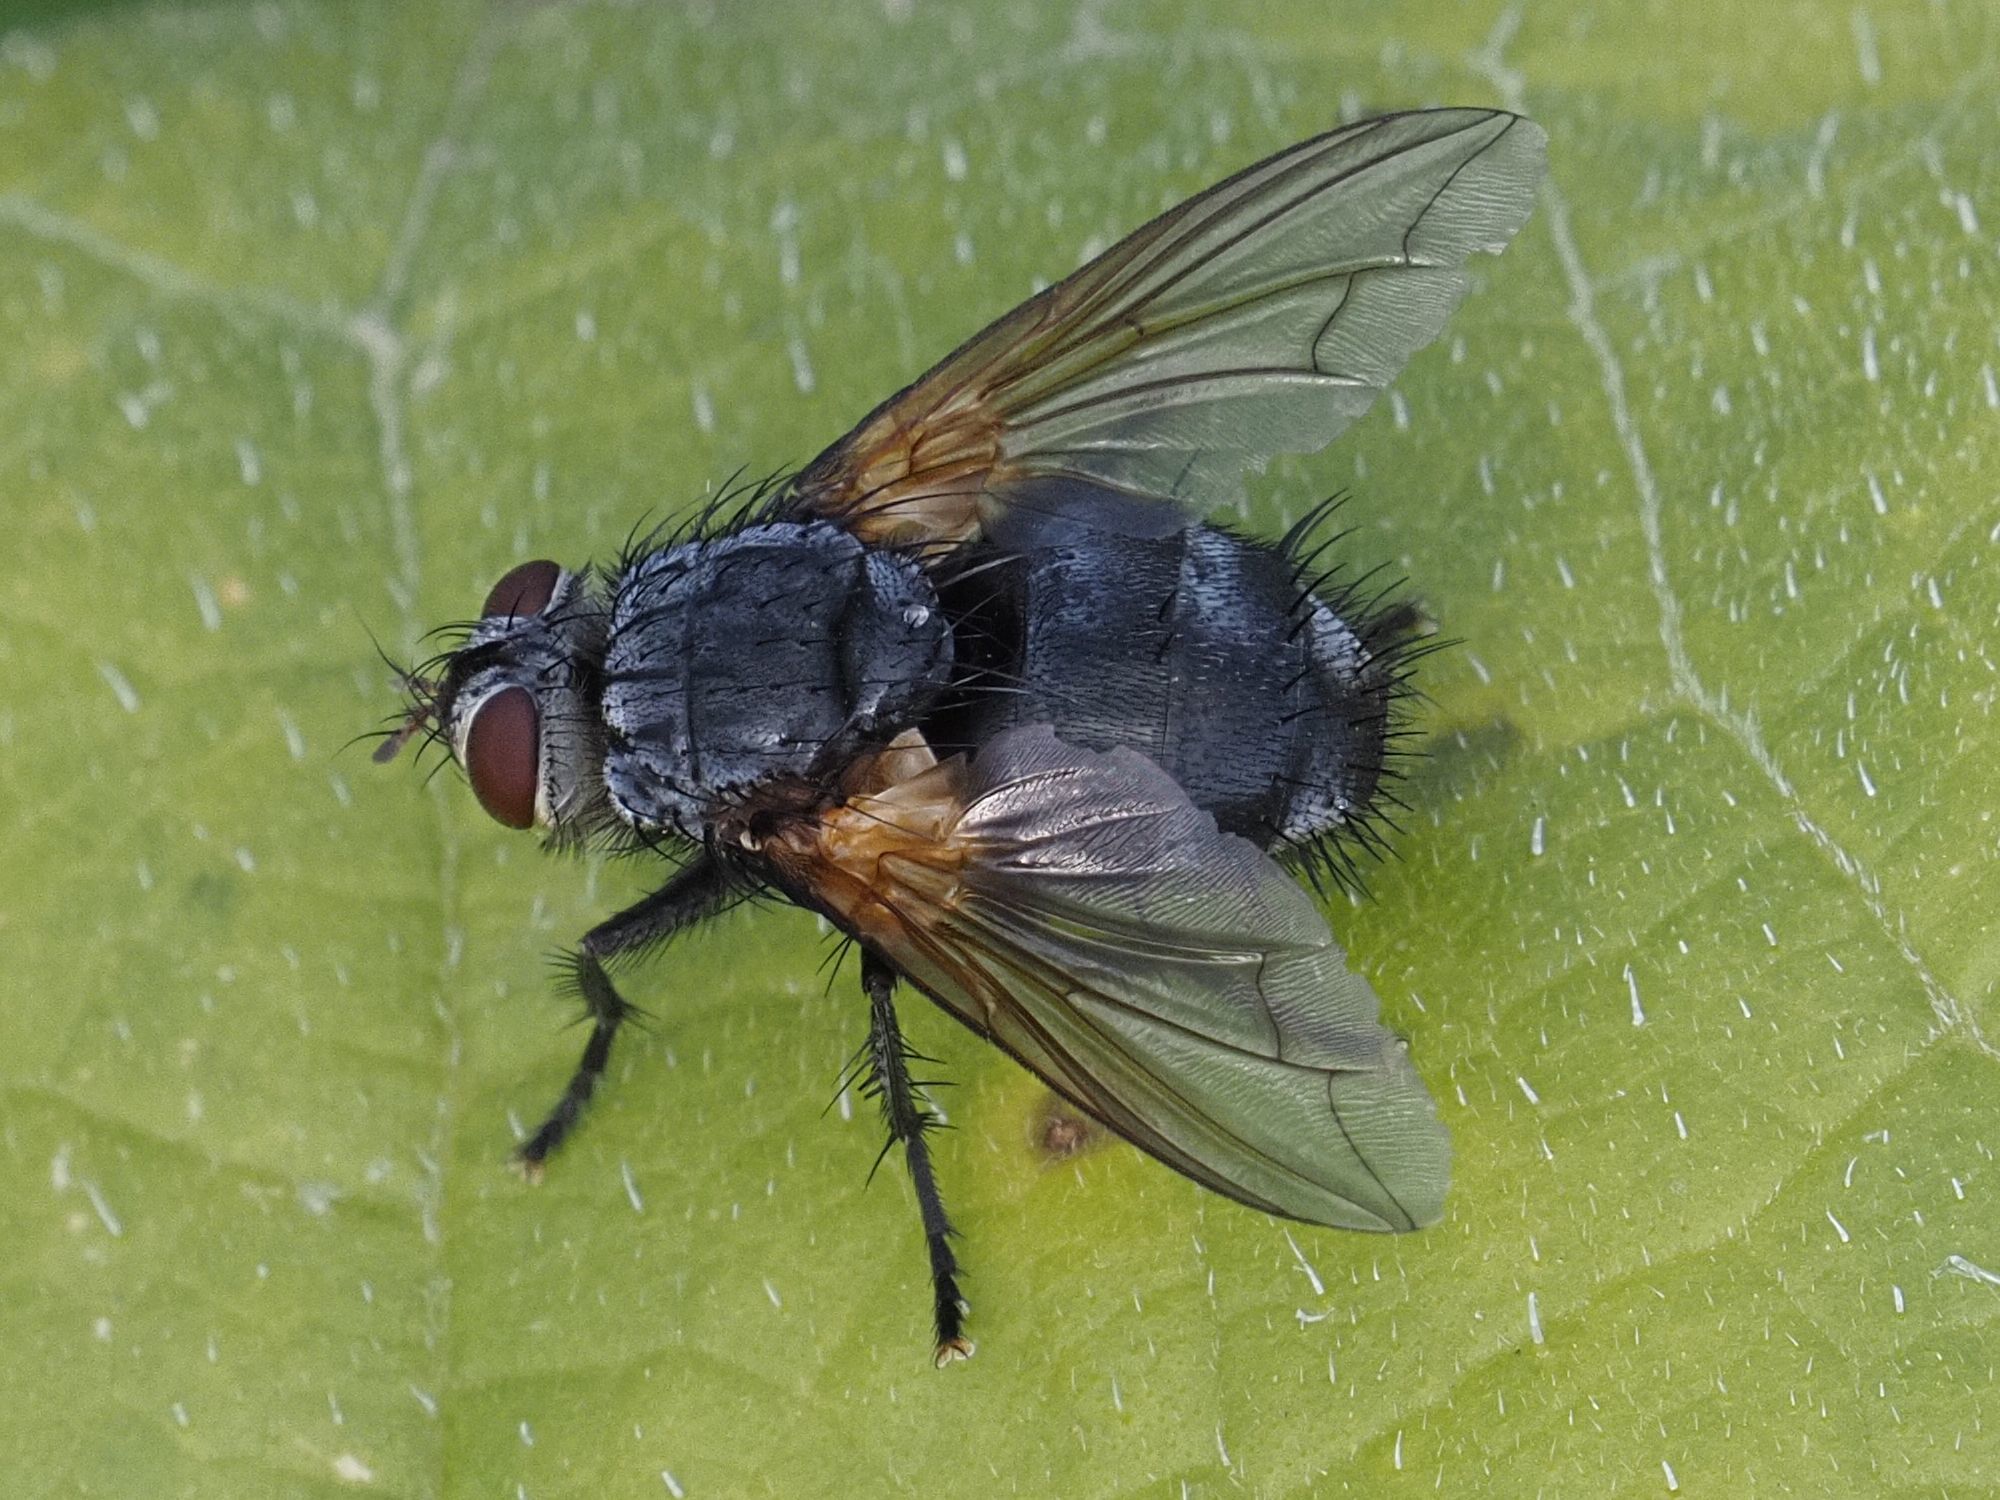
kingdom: Animalia
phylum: Arthropoda
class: Insecta
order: Diptera
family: Tachinidae
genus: Nemoraea
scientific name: Nemoraea pellucida
